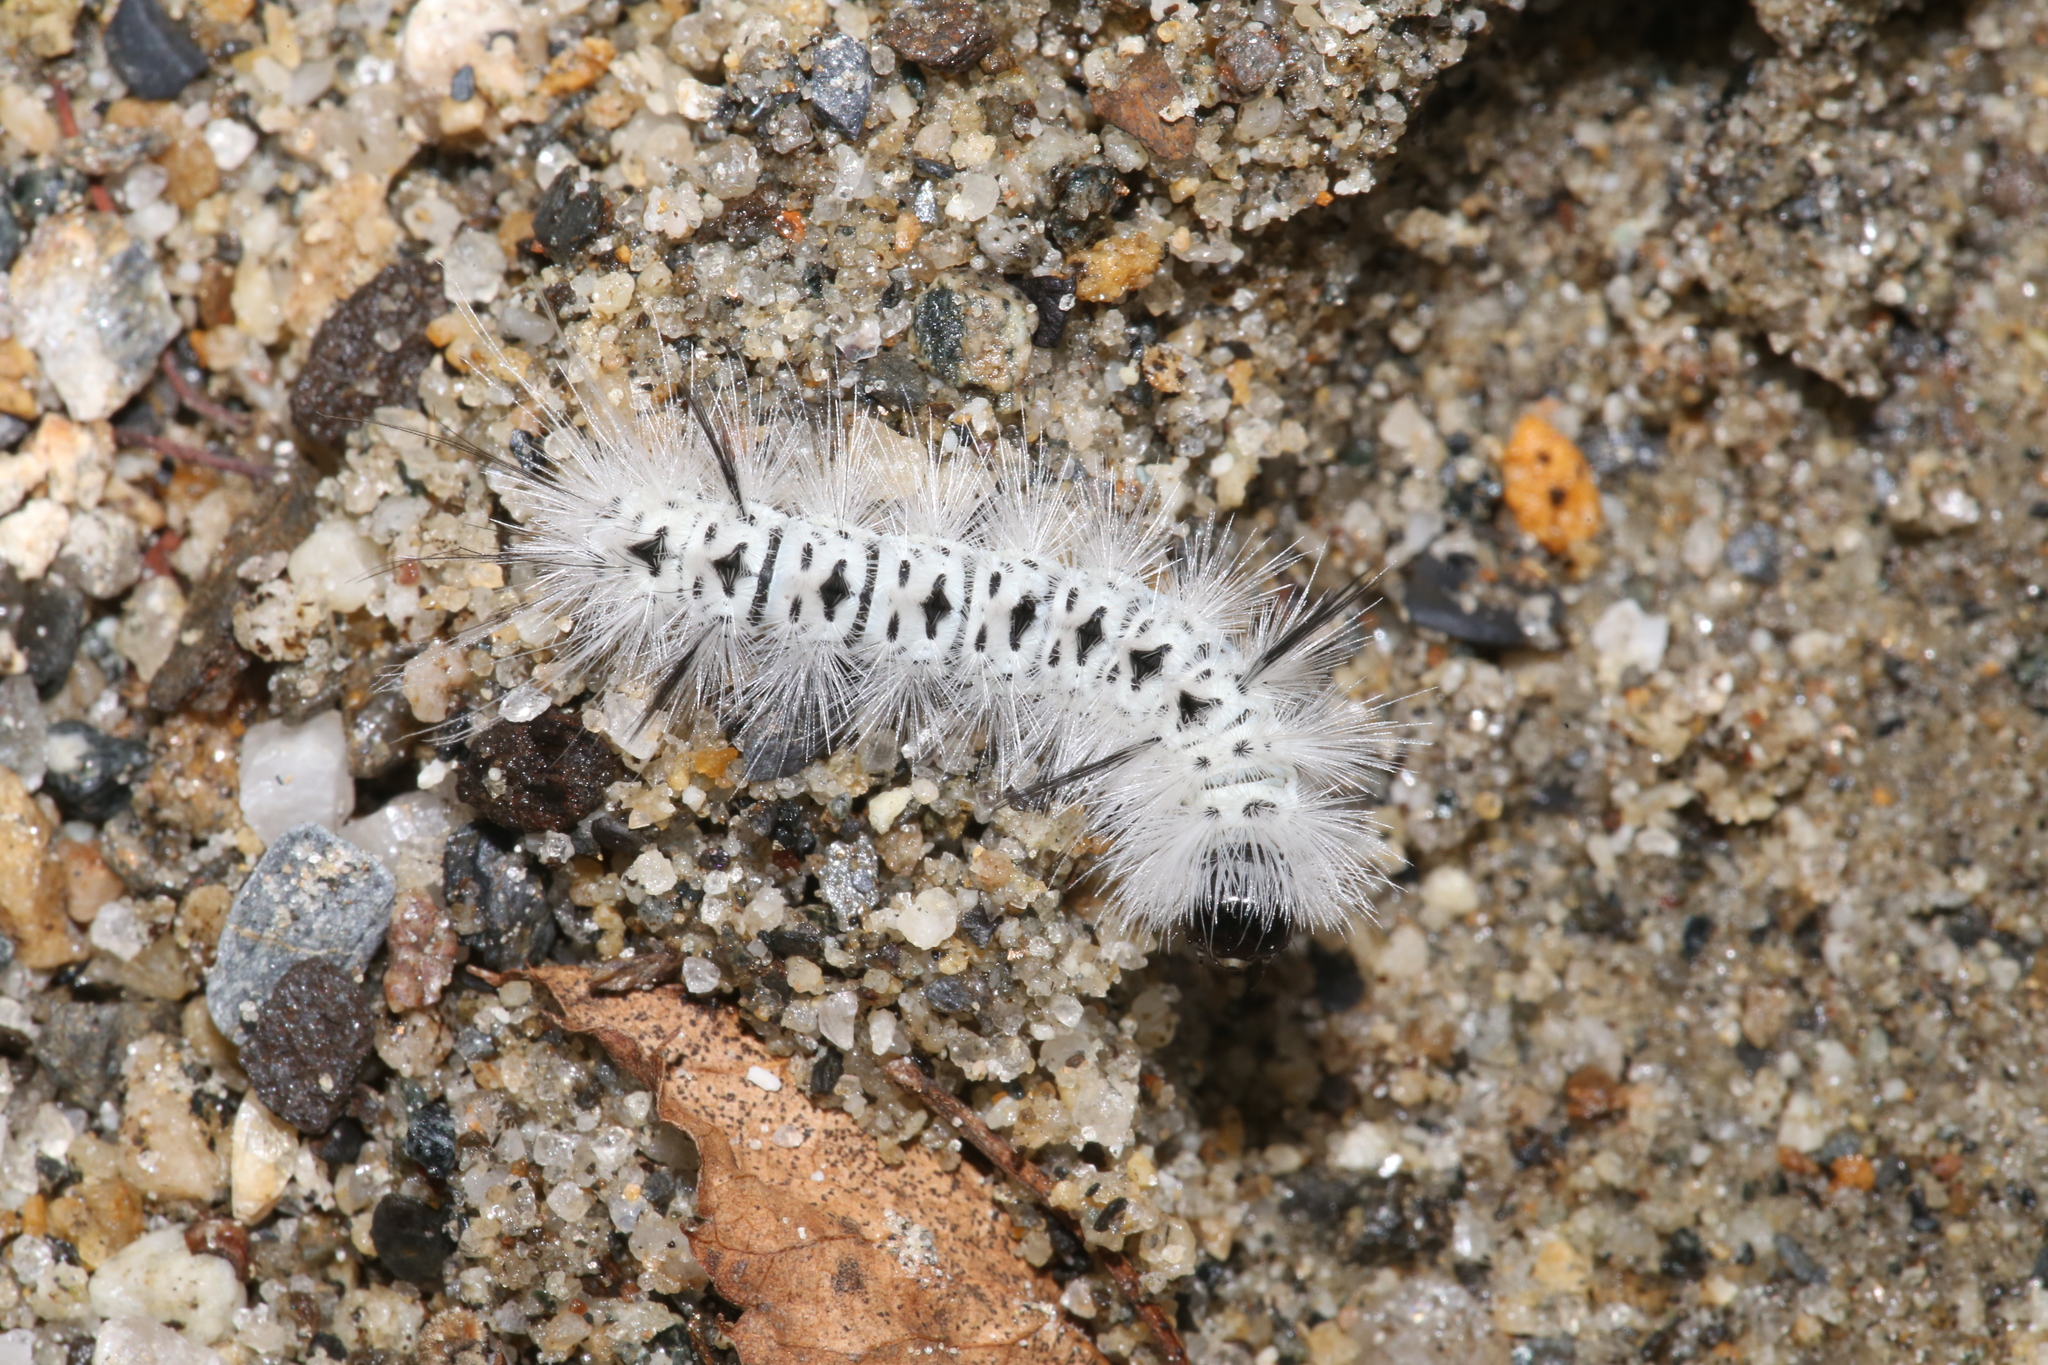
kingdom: Animalia
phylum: Arthropoda
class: Insecta
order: Lepidoptera
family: Erebidae
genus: Lophocampa
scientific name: Lophocampa caryae
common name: Hickory tussock moth
